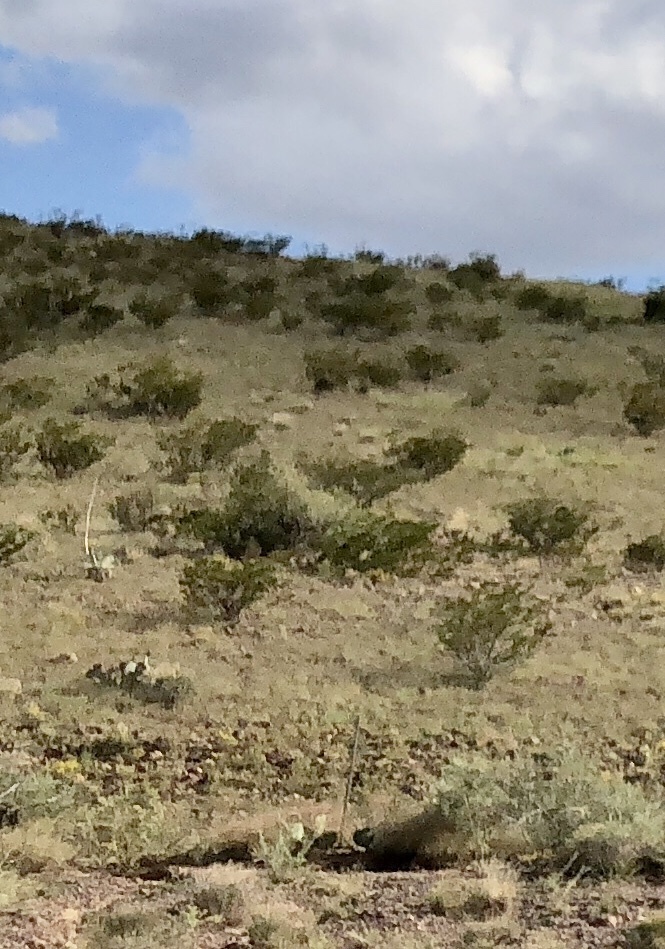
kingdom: Plantae
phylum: Tracheophyta
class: Magnoliopsida
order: Zygophyllales
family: Zygophyllaceae
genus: Larrea
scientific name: Larrea tridentata
